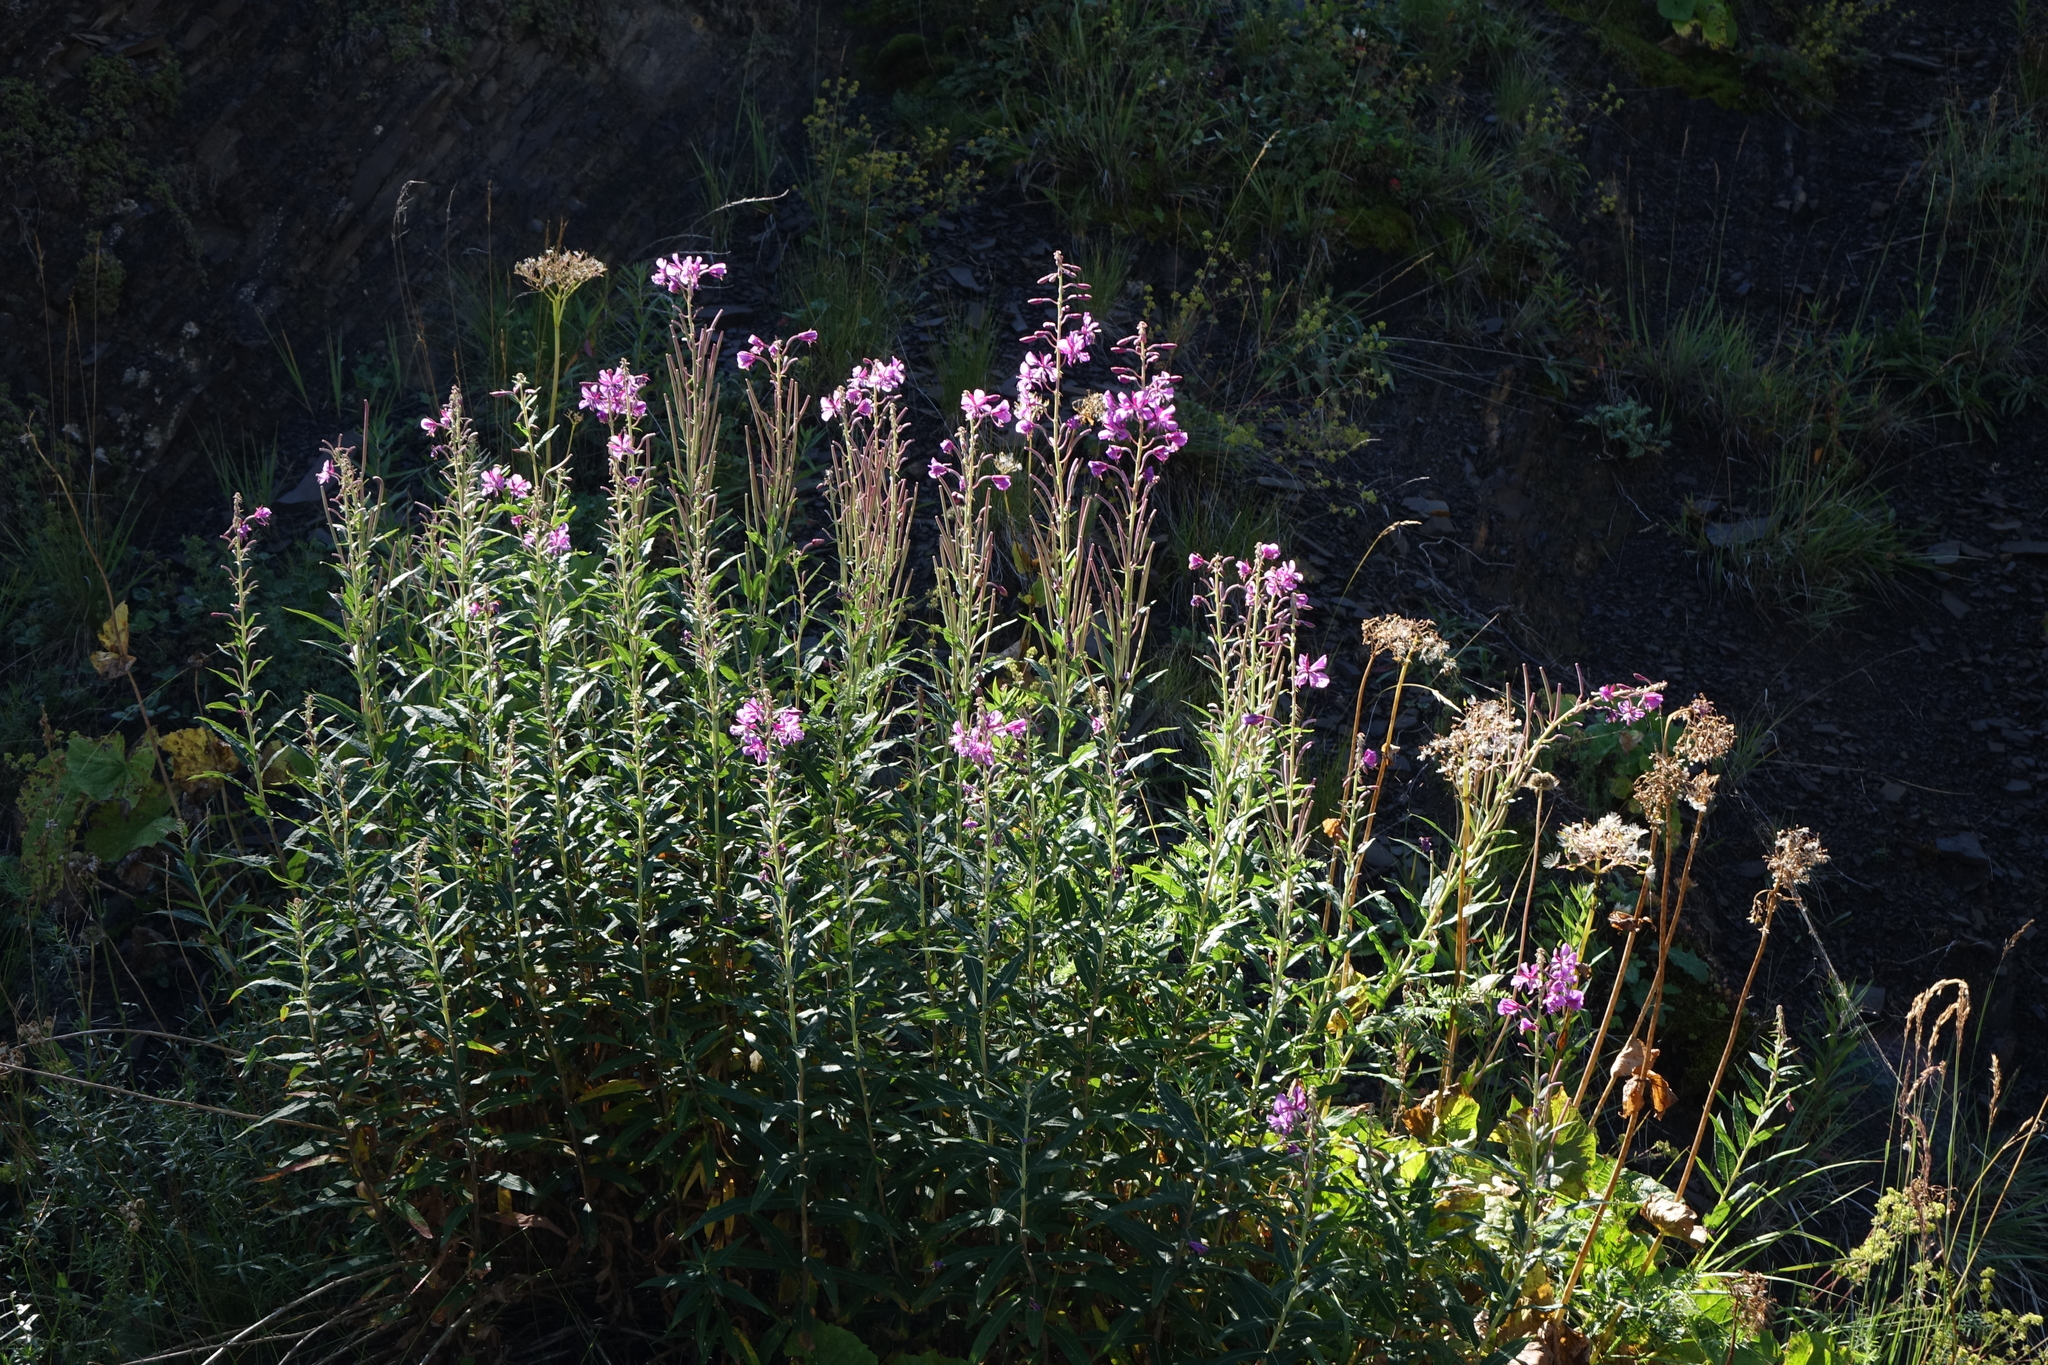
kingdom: Plantae
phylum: Tracheophyta
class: Magnoliopsida
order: Myrtales
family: Onagraceae
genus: Chamaenerion
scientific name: Chamaenerion angustifolium
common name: Fireweed
